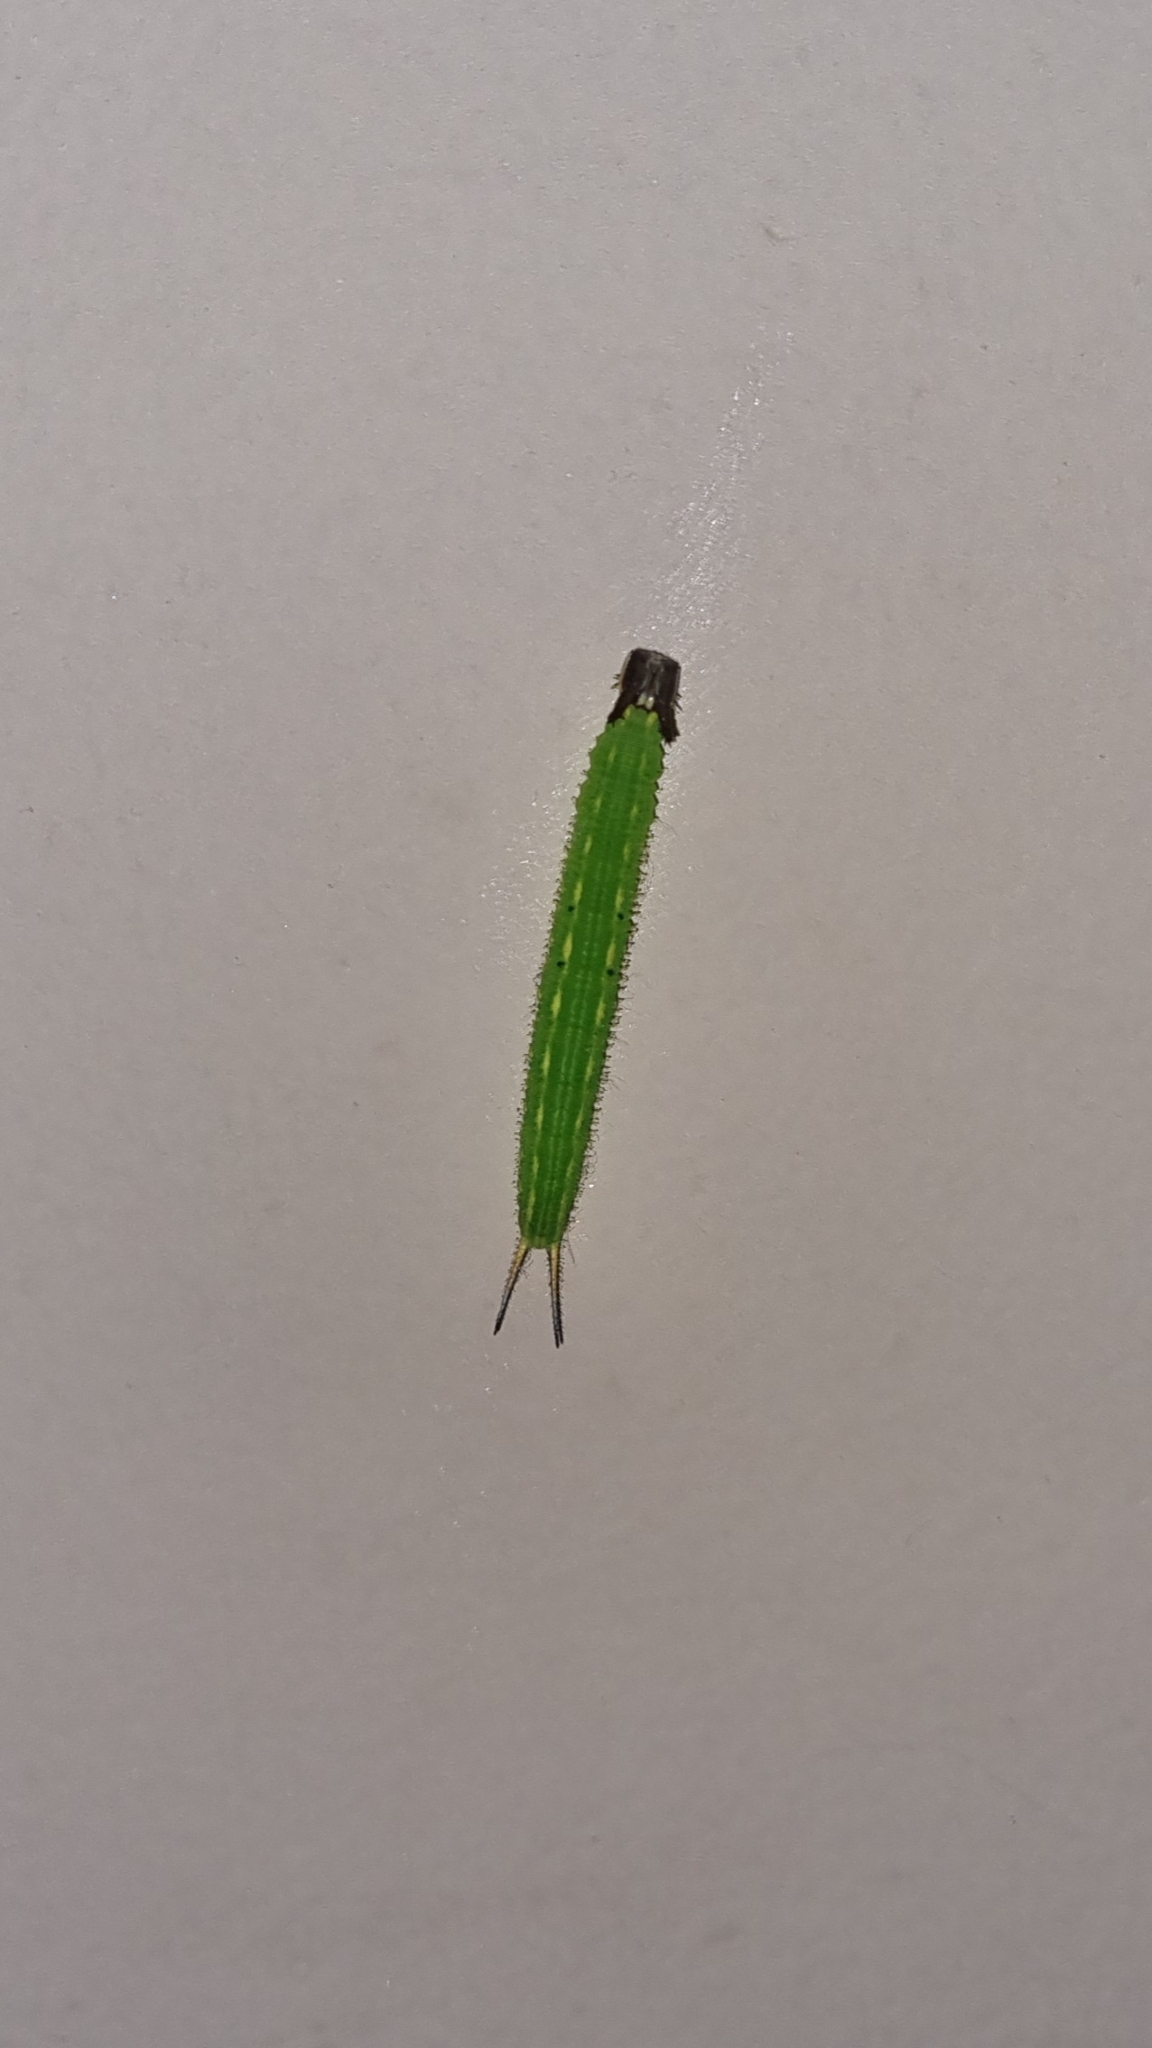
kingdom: Animalia
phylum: Arthropoda
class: Insecta
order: Lepidoptera
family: Nymphalidae
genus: Elymnias
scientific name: Elymnias caudata
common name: Tailed palmfly
